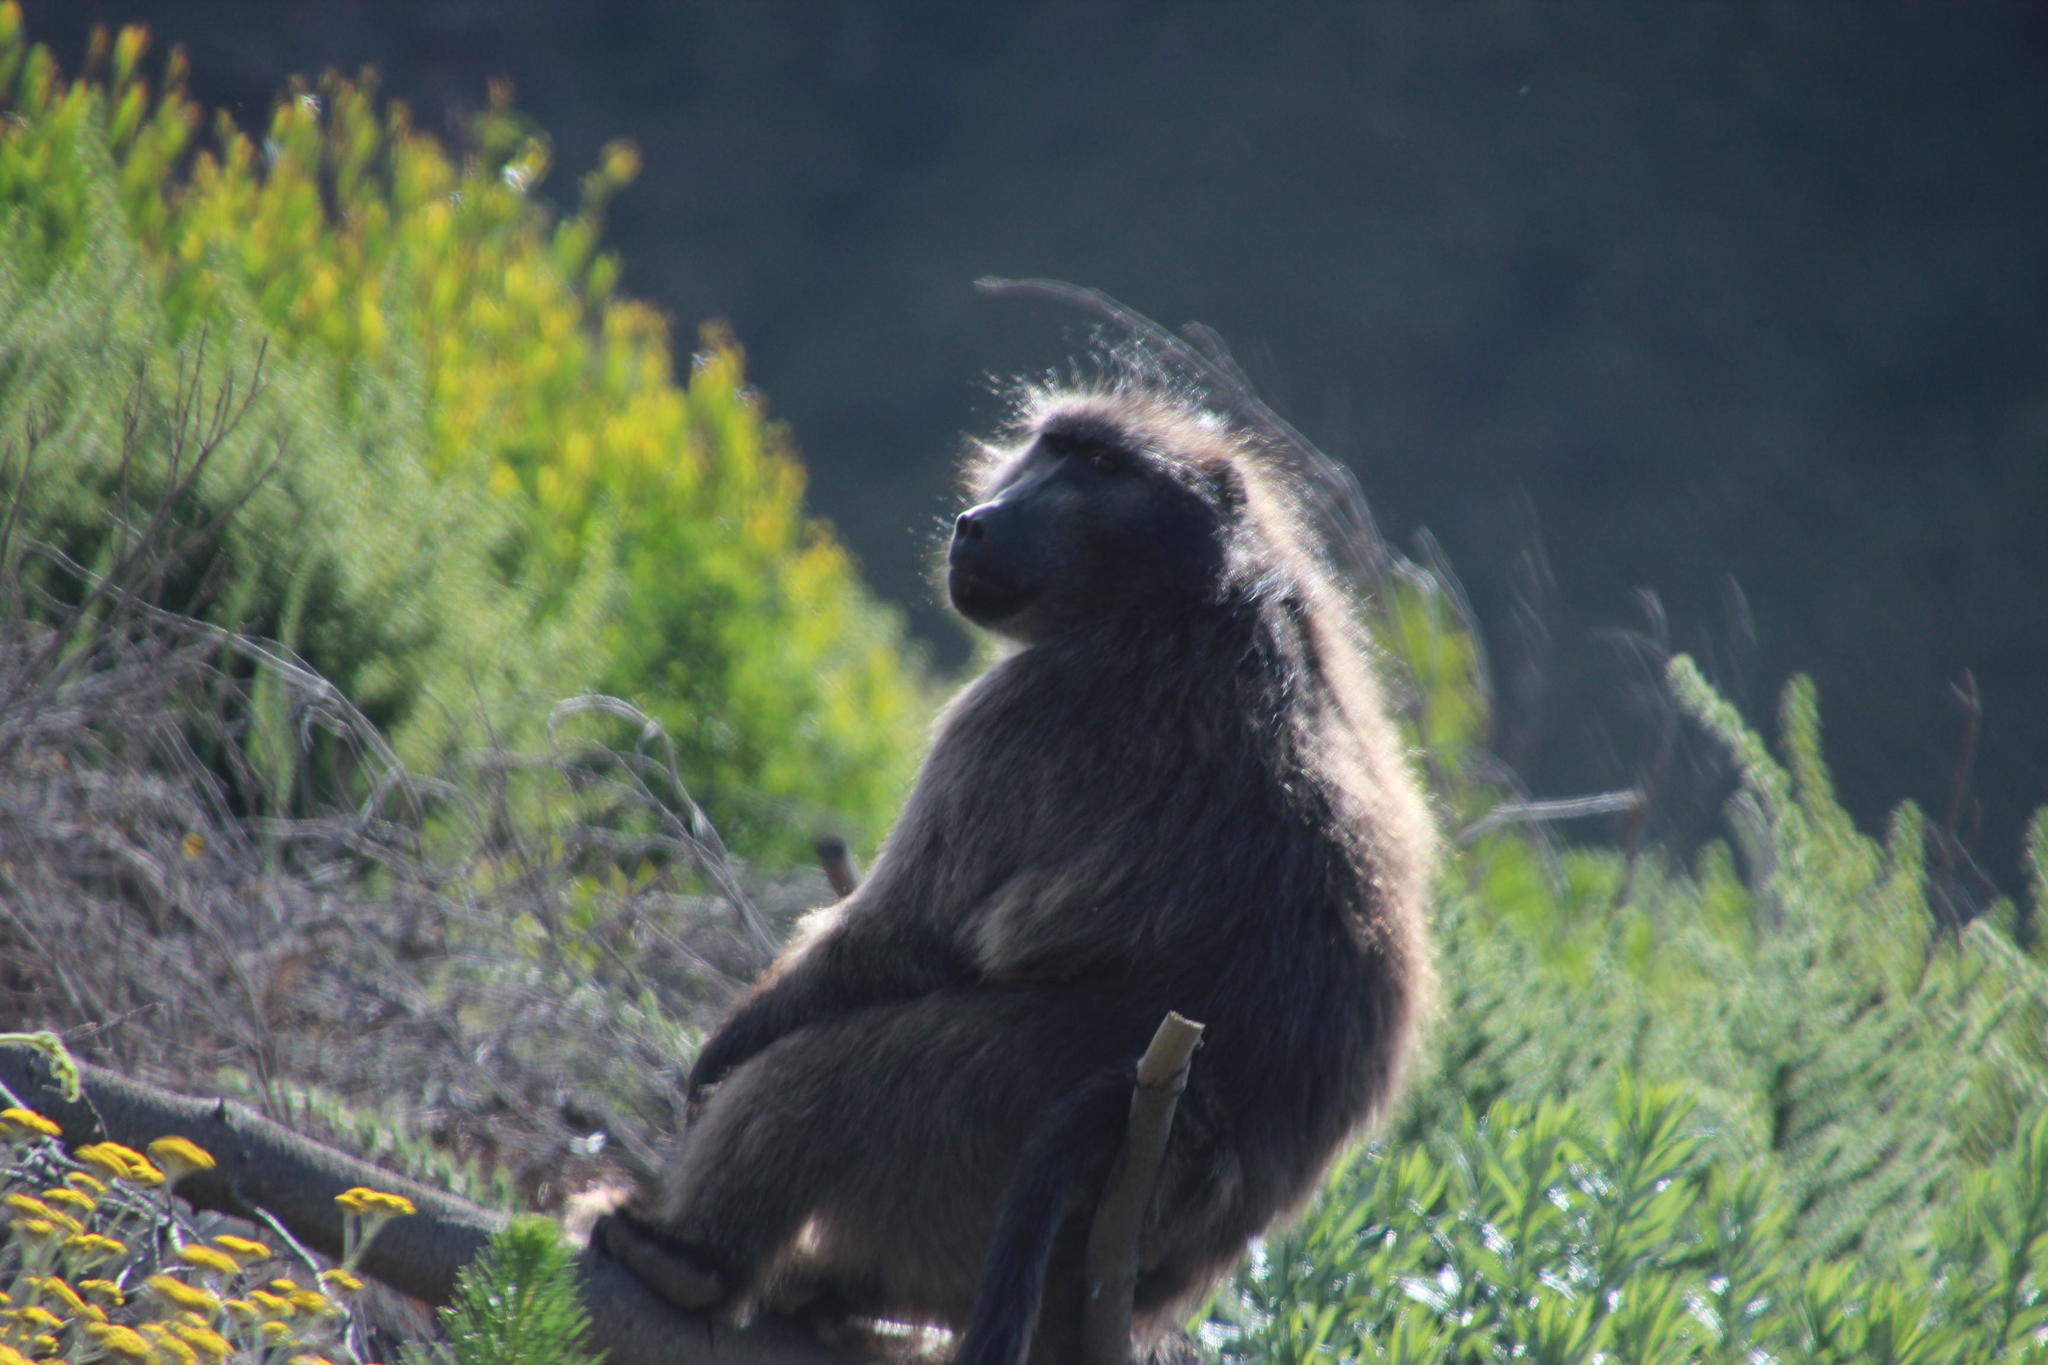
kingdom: Animalia
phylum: Chordata
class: Mammalia
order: Primates
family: Cercopithecidae
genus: Papio
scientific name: Papio ursinus
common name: Chacma baboon
